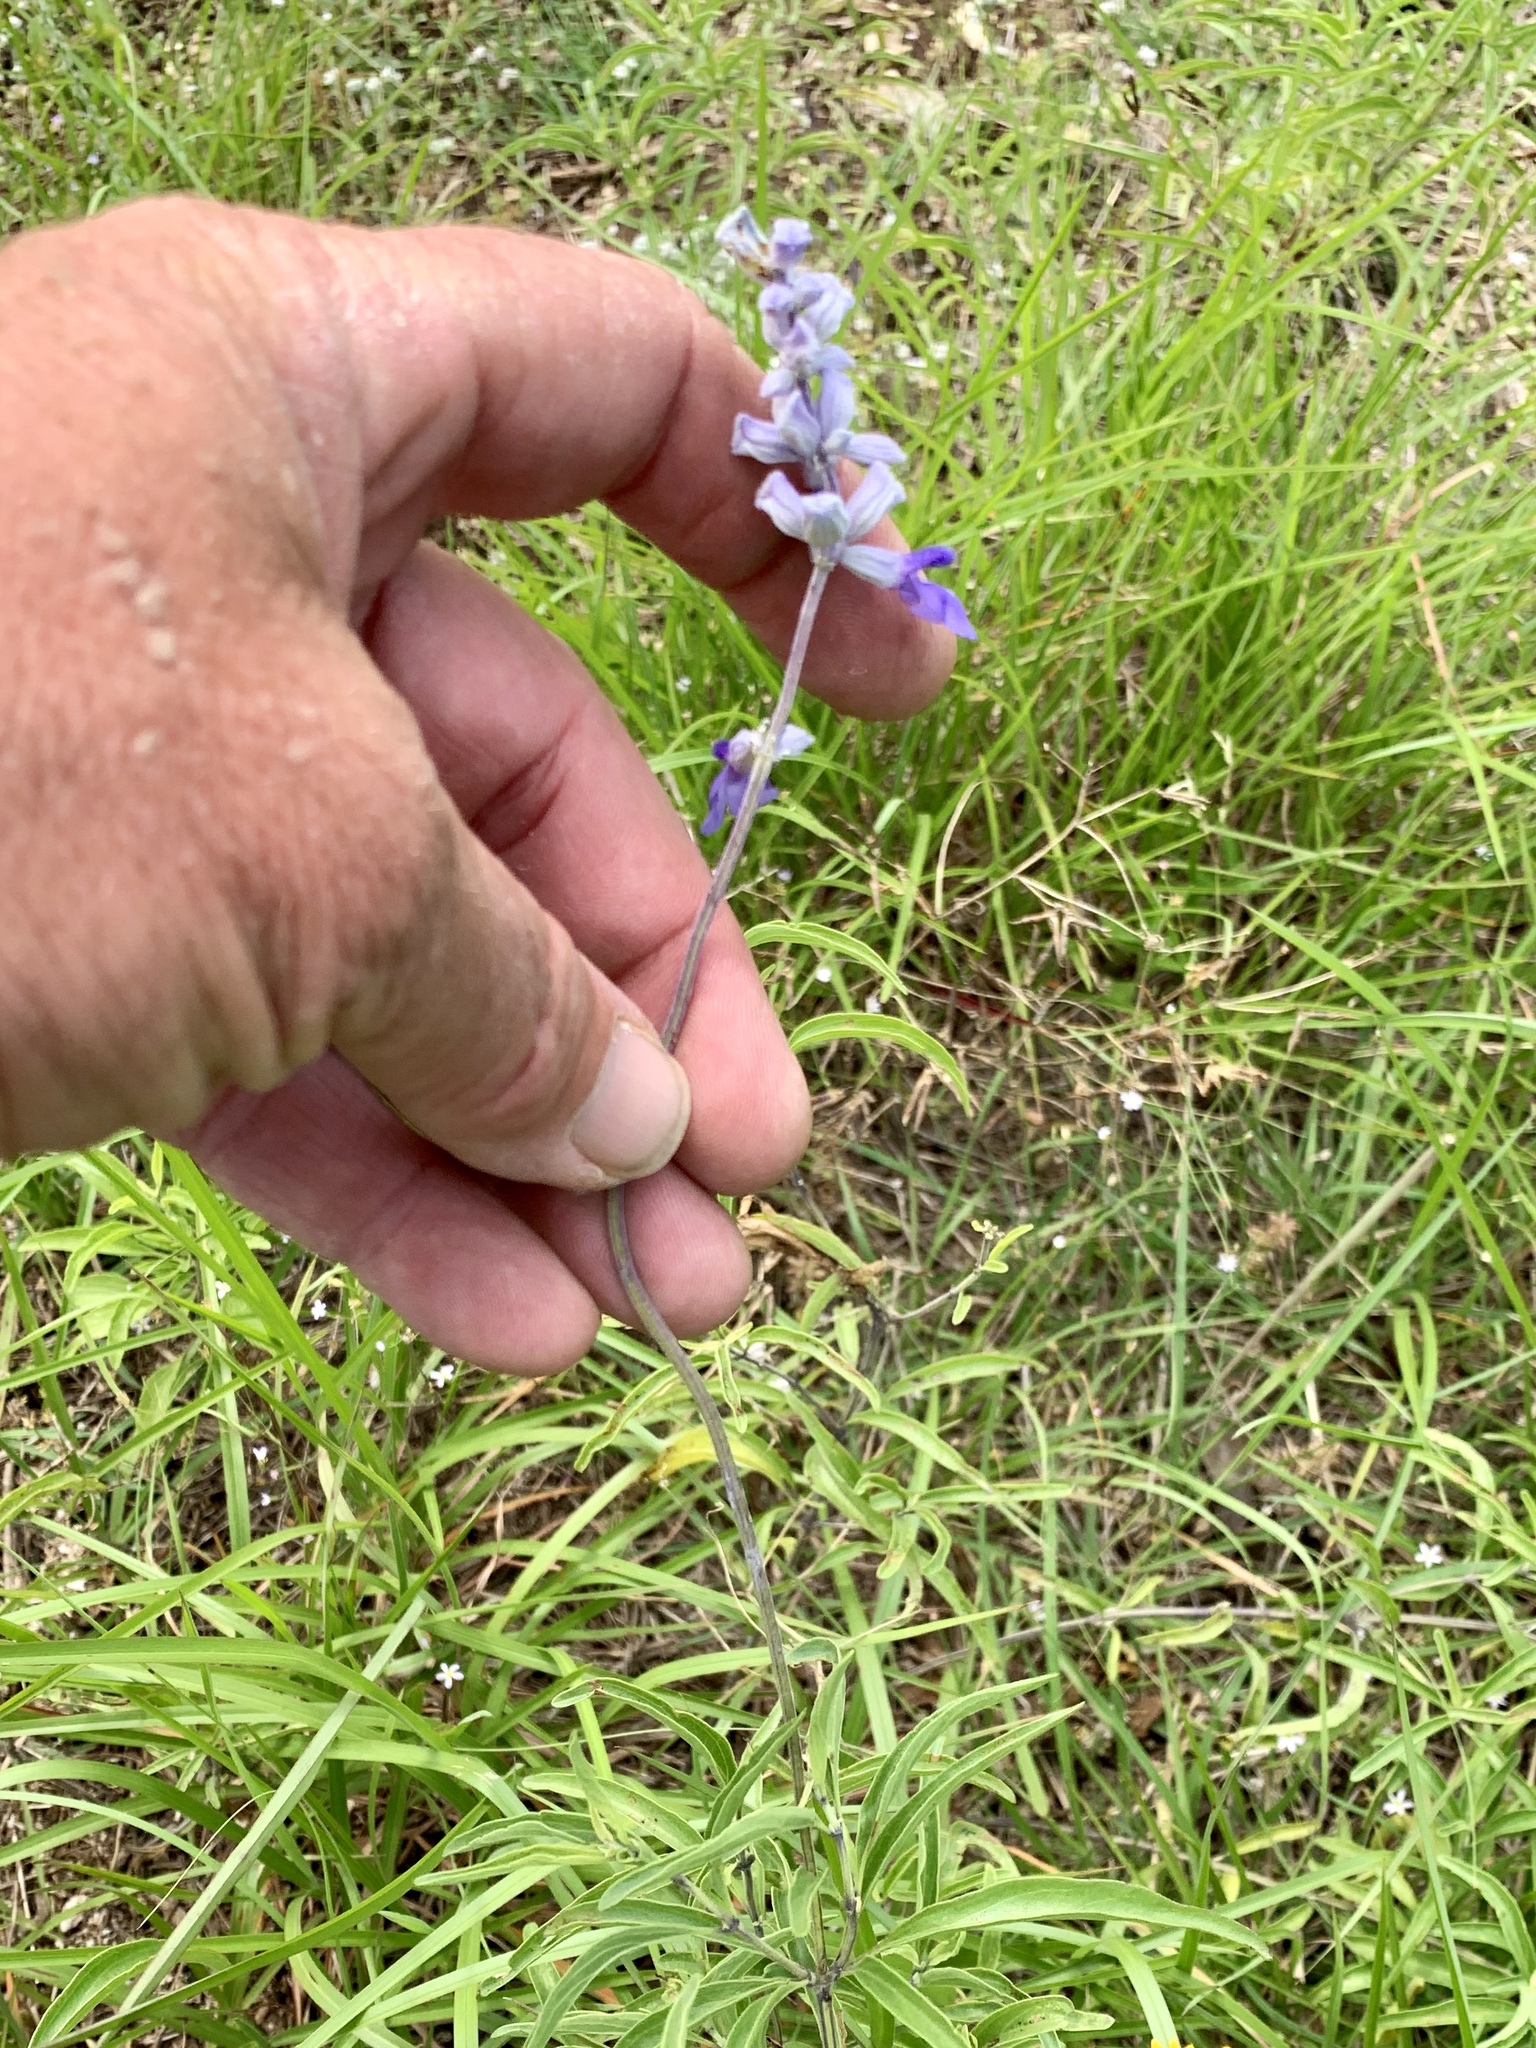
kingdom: Plantae
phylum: Tracheophyta
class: Magnoliopsida
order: Lamiales
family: Lamiaceae
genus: Salvia
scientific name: Salvia farinacea
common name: Mealy sage
